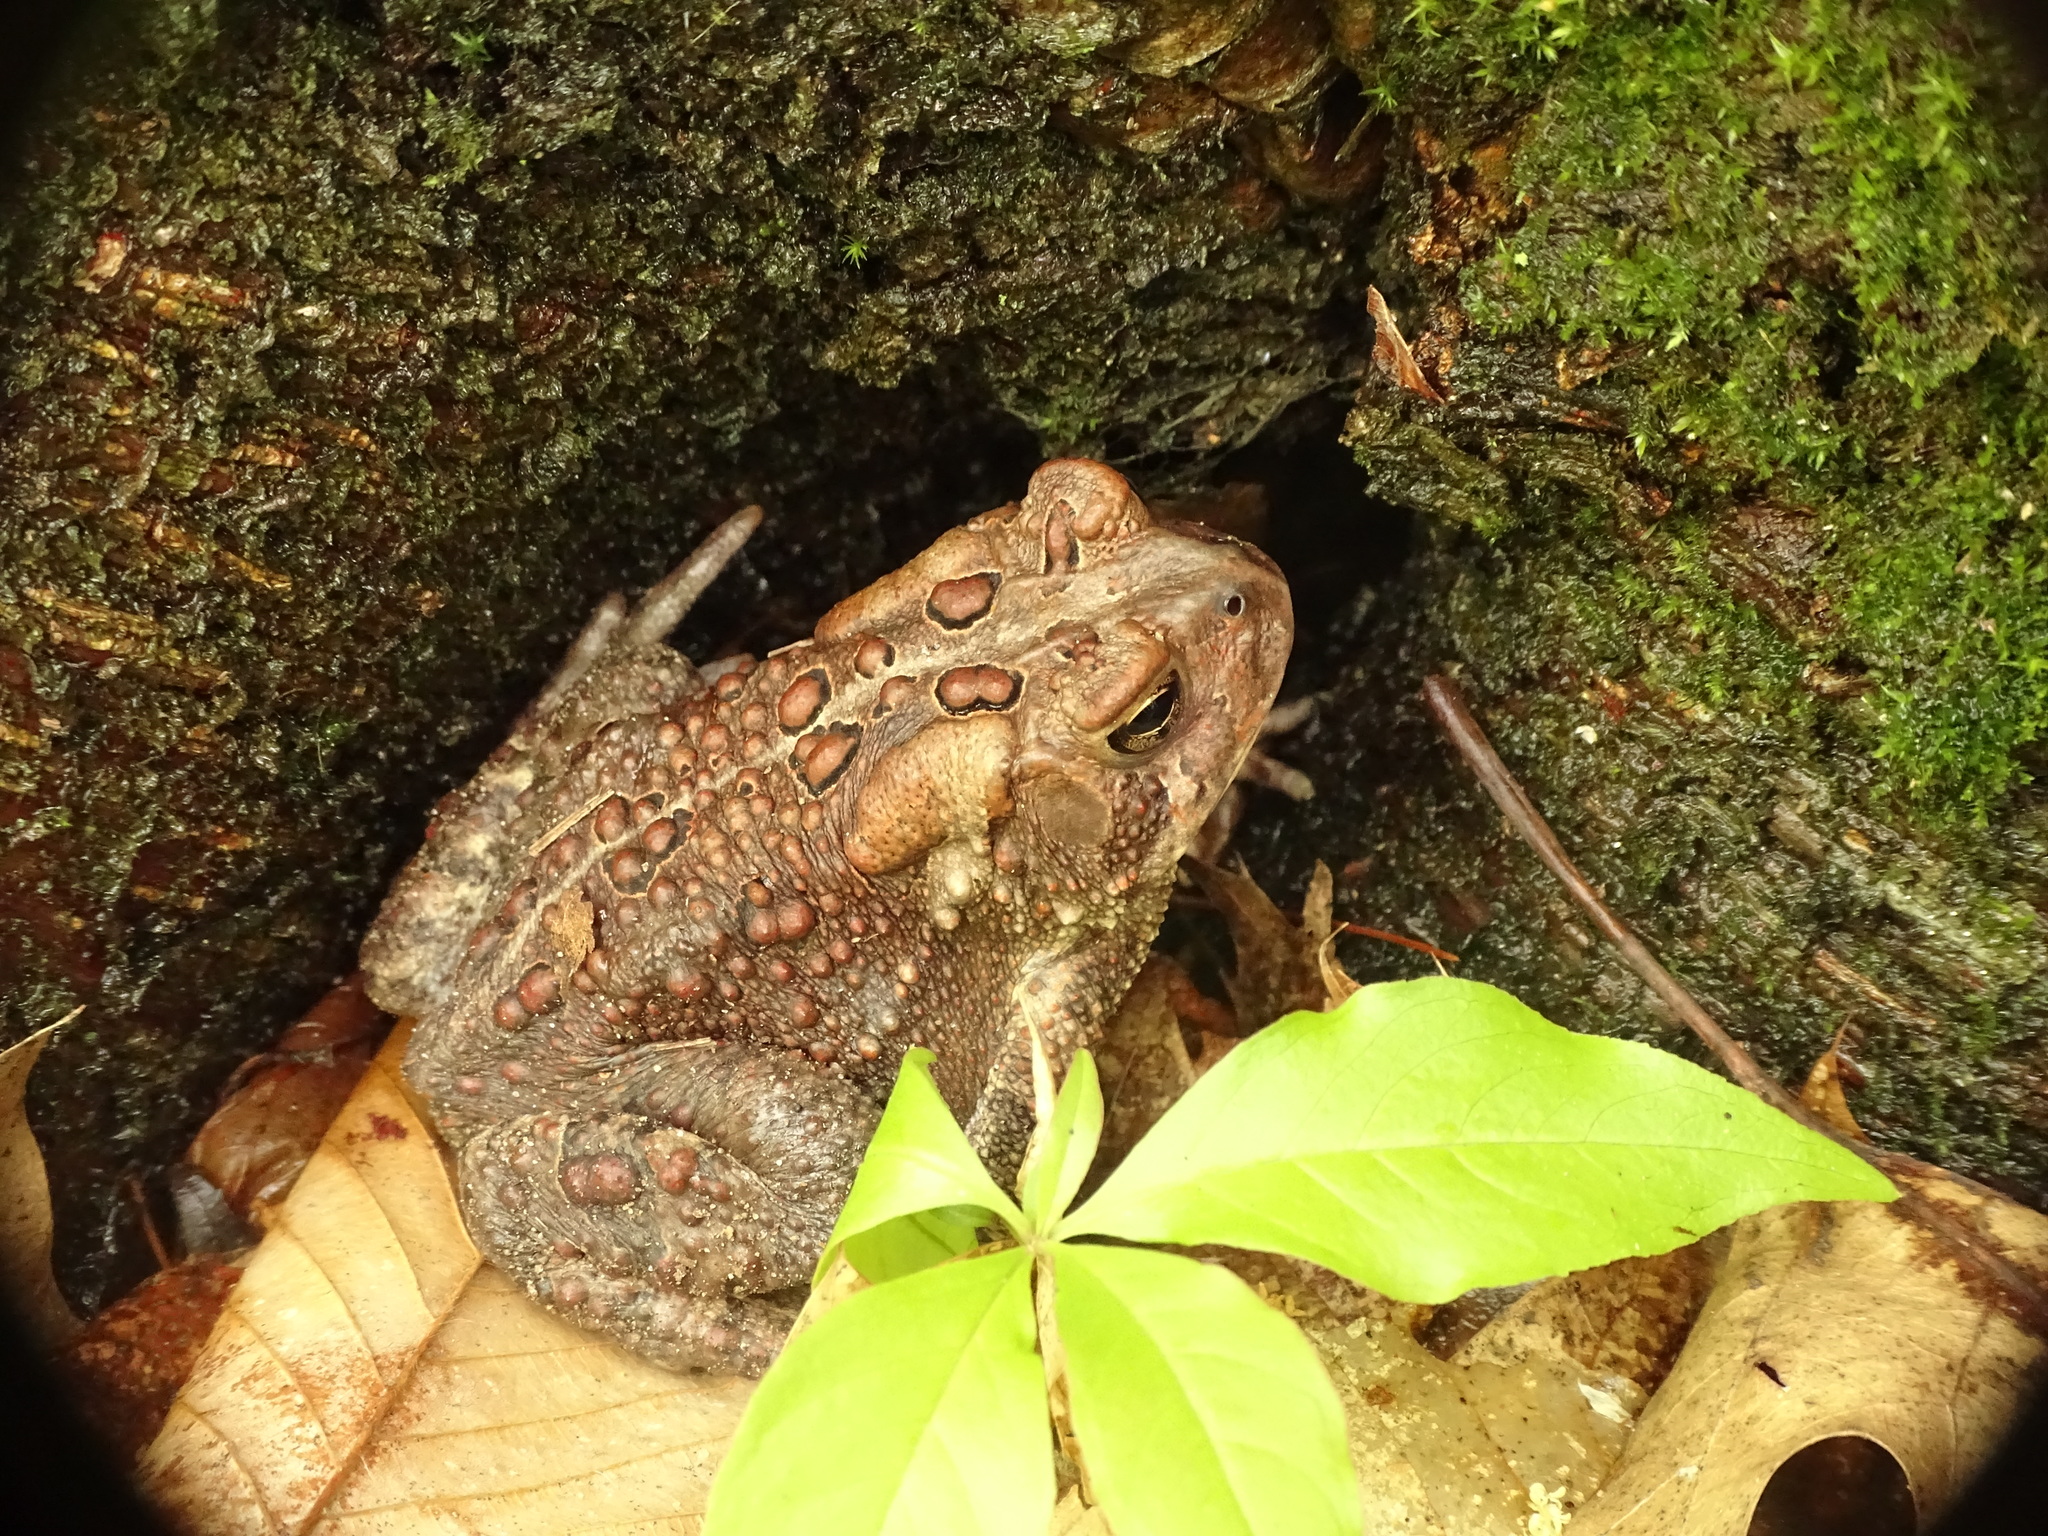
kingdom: Animalia
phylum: Chordata
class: Amphibia
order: Anura
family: Bufonidae
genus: Anaxyrus
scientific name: Anaxyrus americanus
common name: American toad
